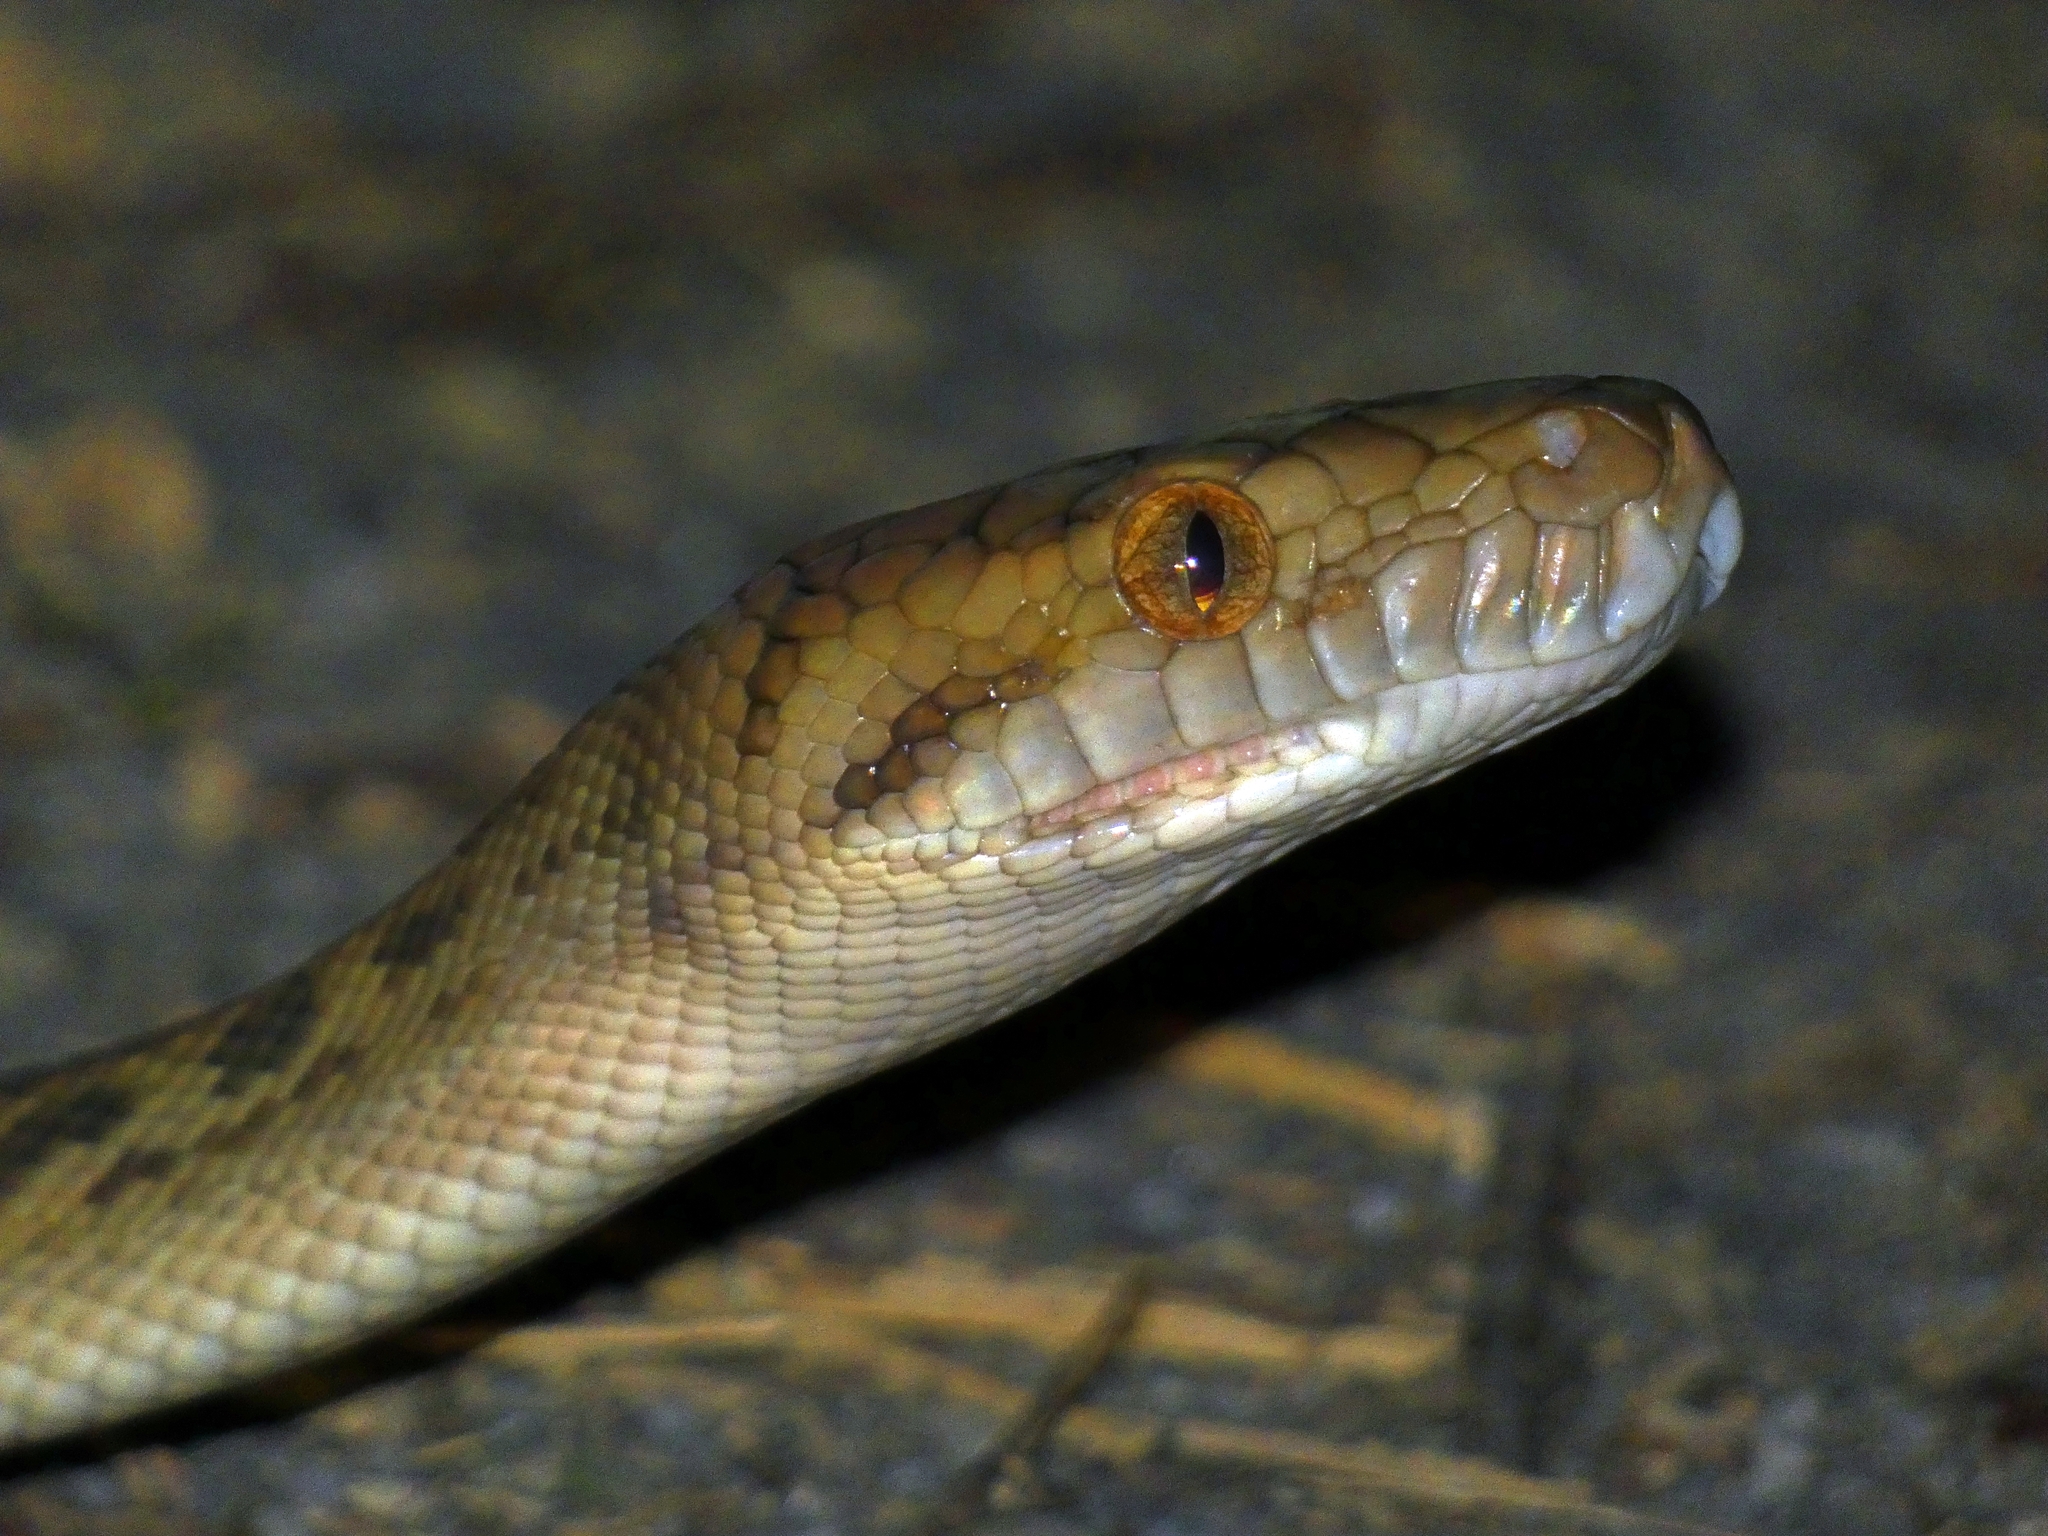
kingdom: Animalia
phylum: Chordata
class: Squamata
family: Pythonidae
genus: Simalia
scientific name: Simalia kinghorni
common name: Scrub python
